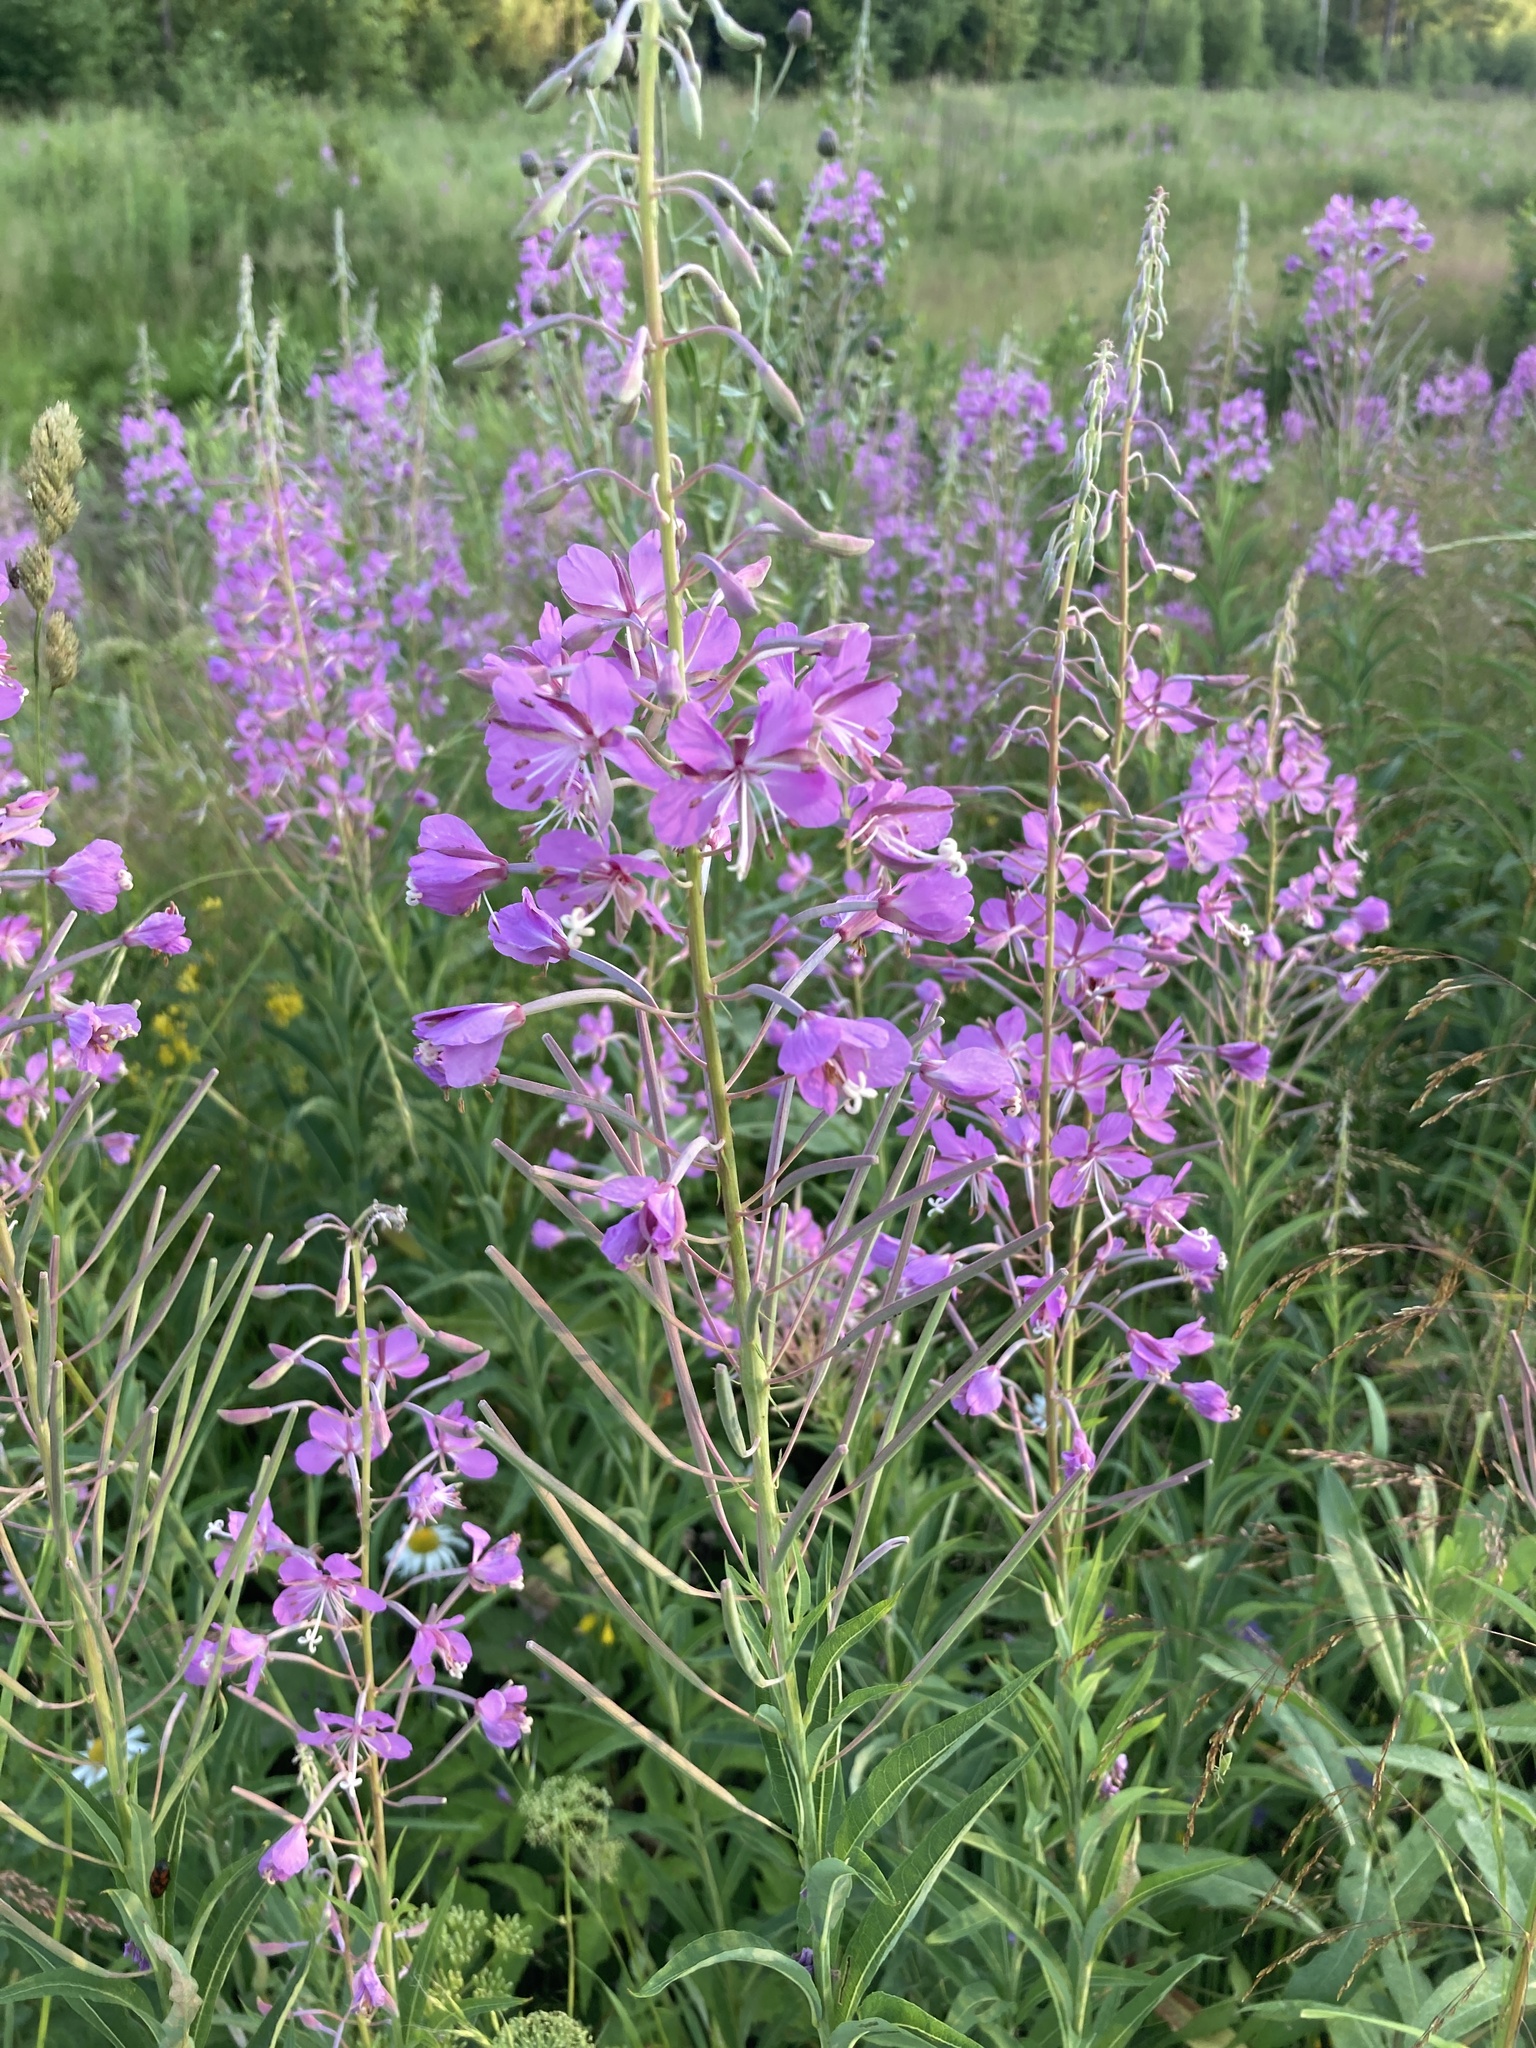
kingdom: Plantae
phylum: Tracheophyta
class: Magnoliopsida
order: Myrtales
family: Onagraceae
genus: Chamaenerion
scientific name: Chamaenerion angustifolium
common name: Fireweed
